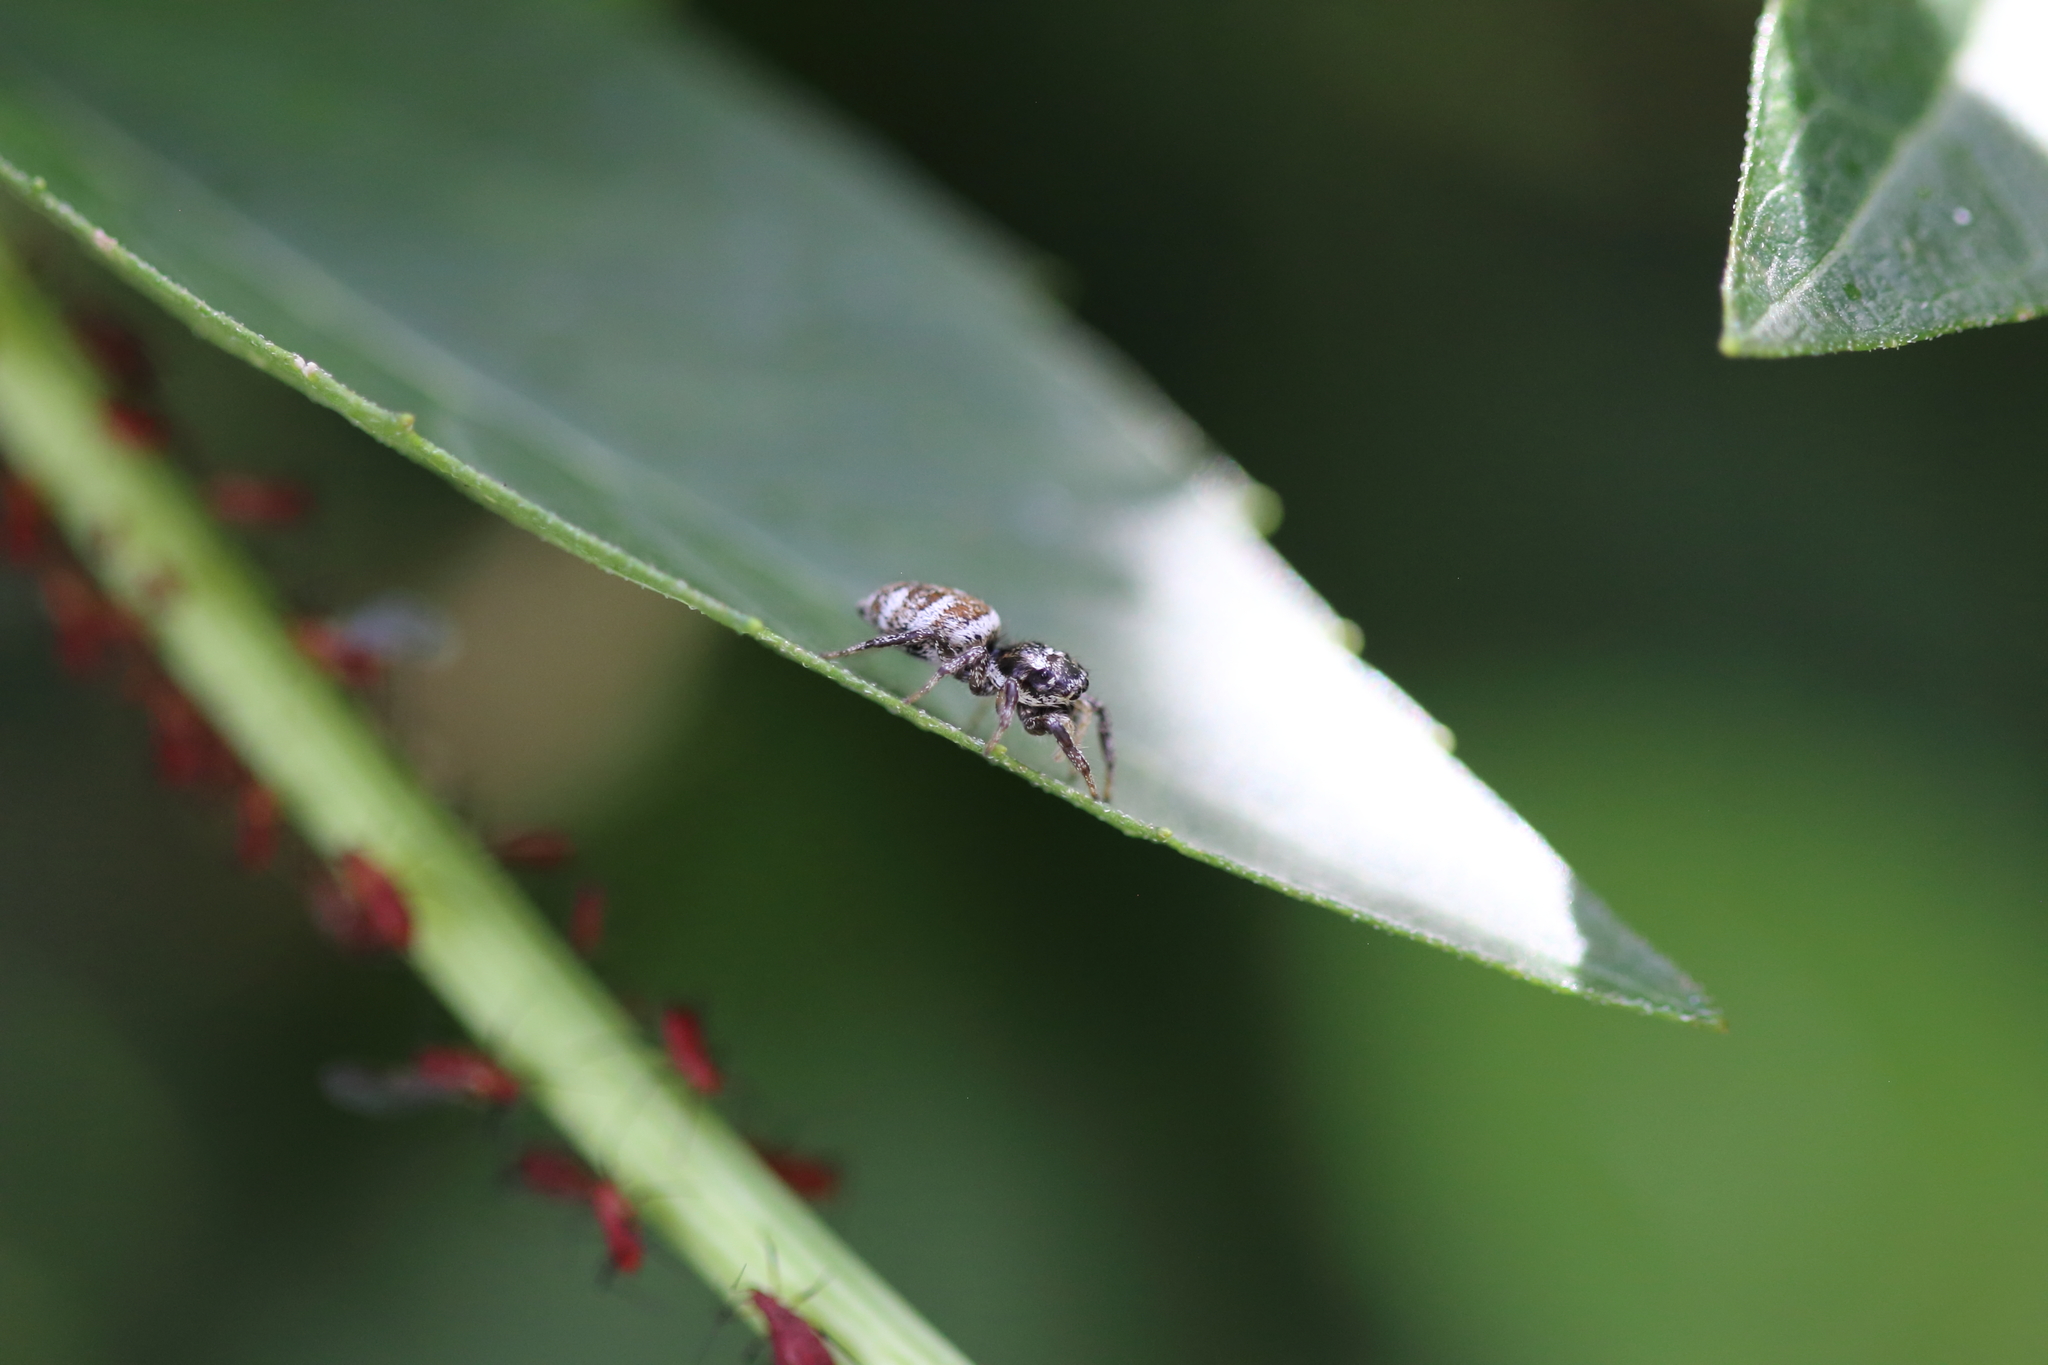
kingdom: Animalia
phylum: Arthropoda
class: Arachnida
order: Araneae
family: Salticidae
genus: Salticus
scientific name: Salticus scenicus
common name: Zebra jumper
